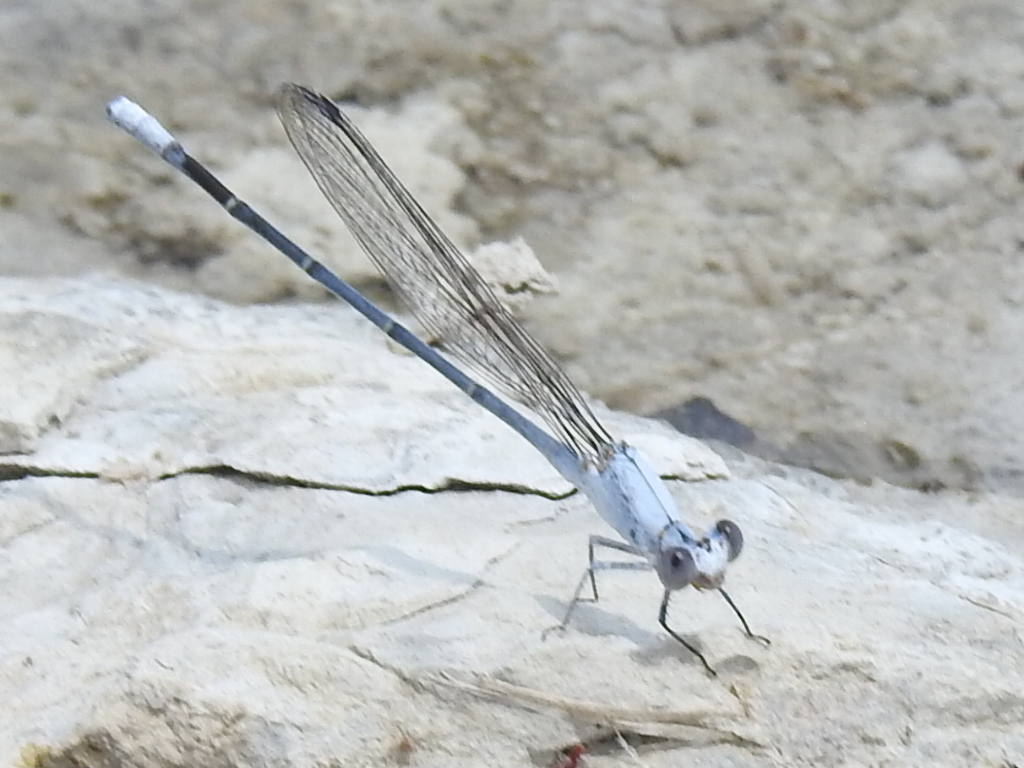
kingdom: Animalia
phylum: Arthropoda
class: Insecta
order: Odonata
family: Coenagrionidae
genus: Argia
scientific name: Argia moesta
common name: Powdered dancer
